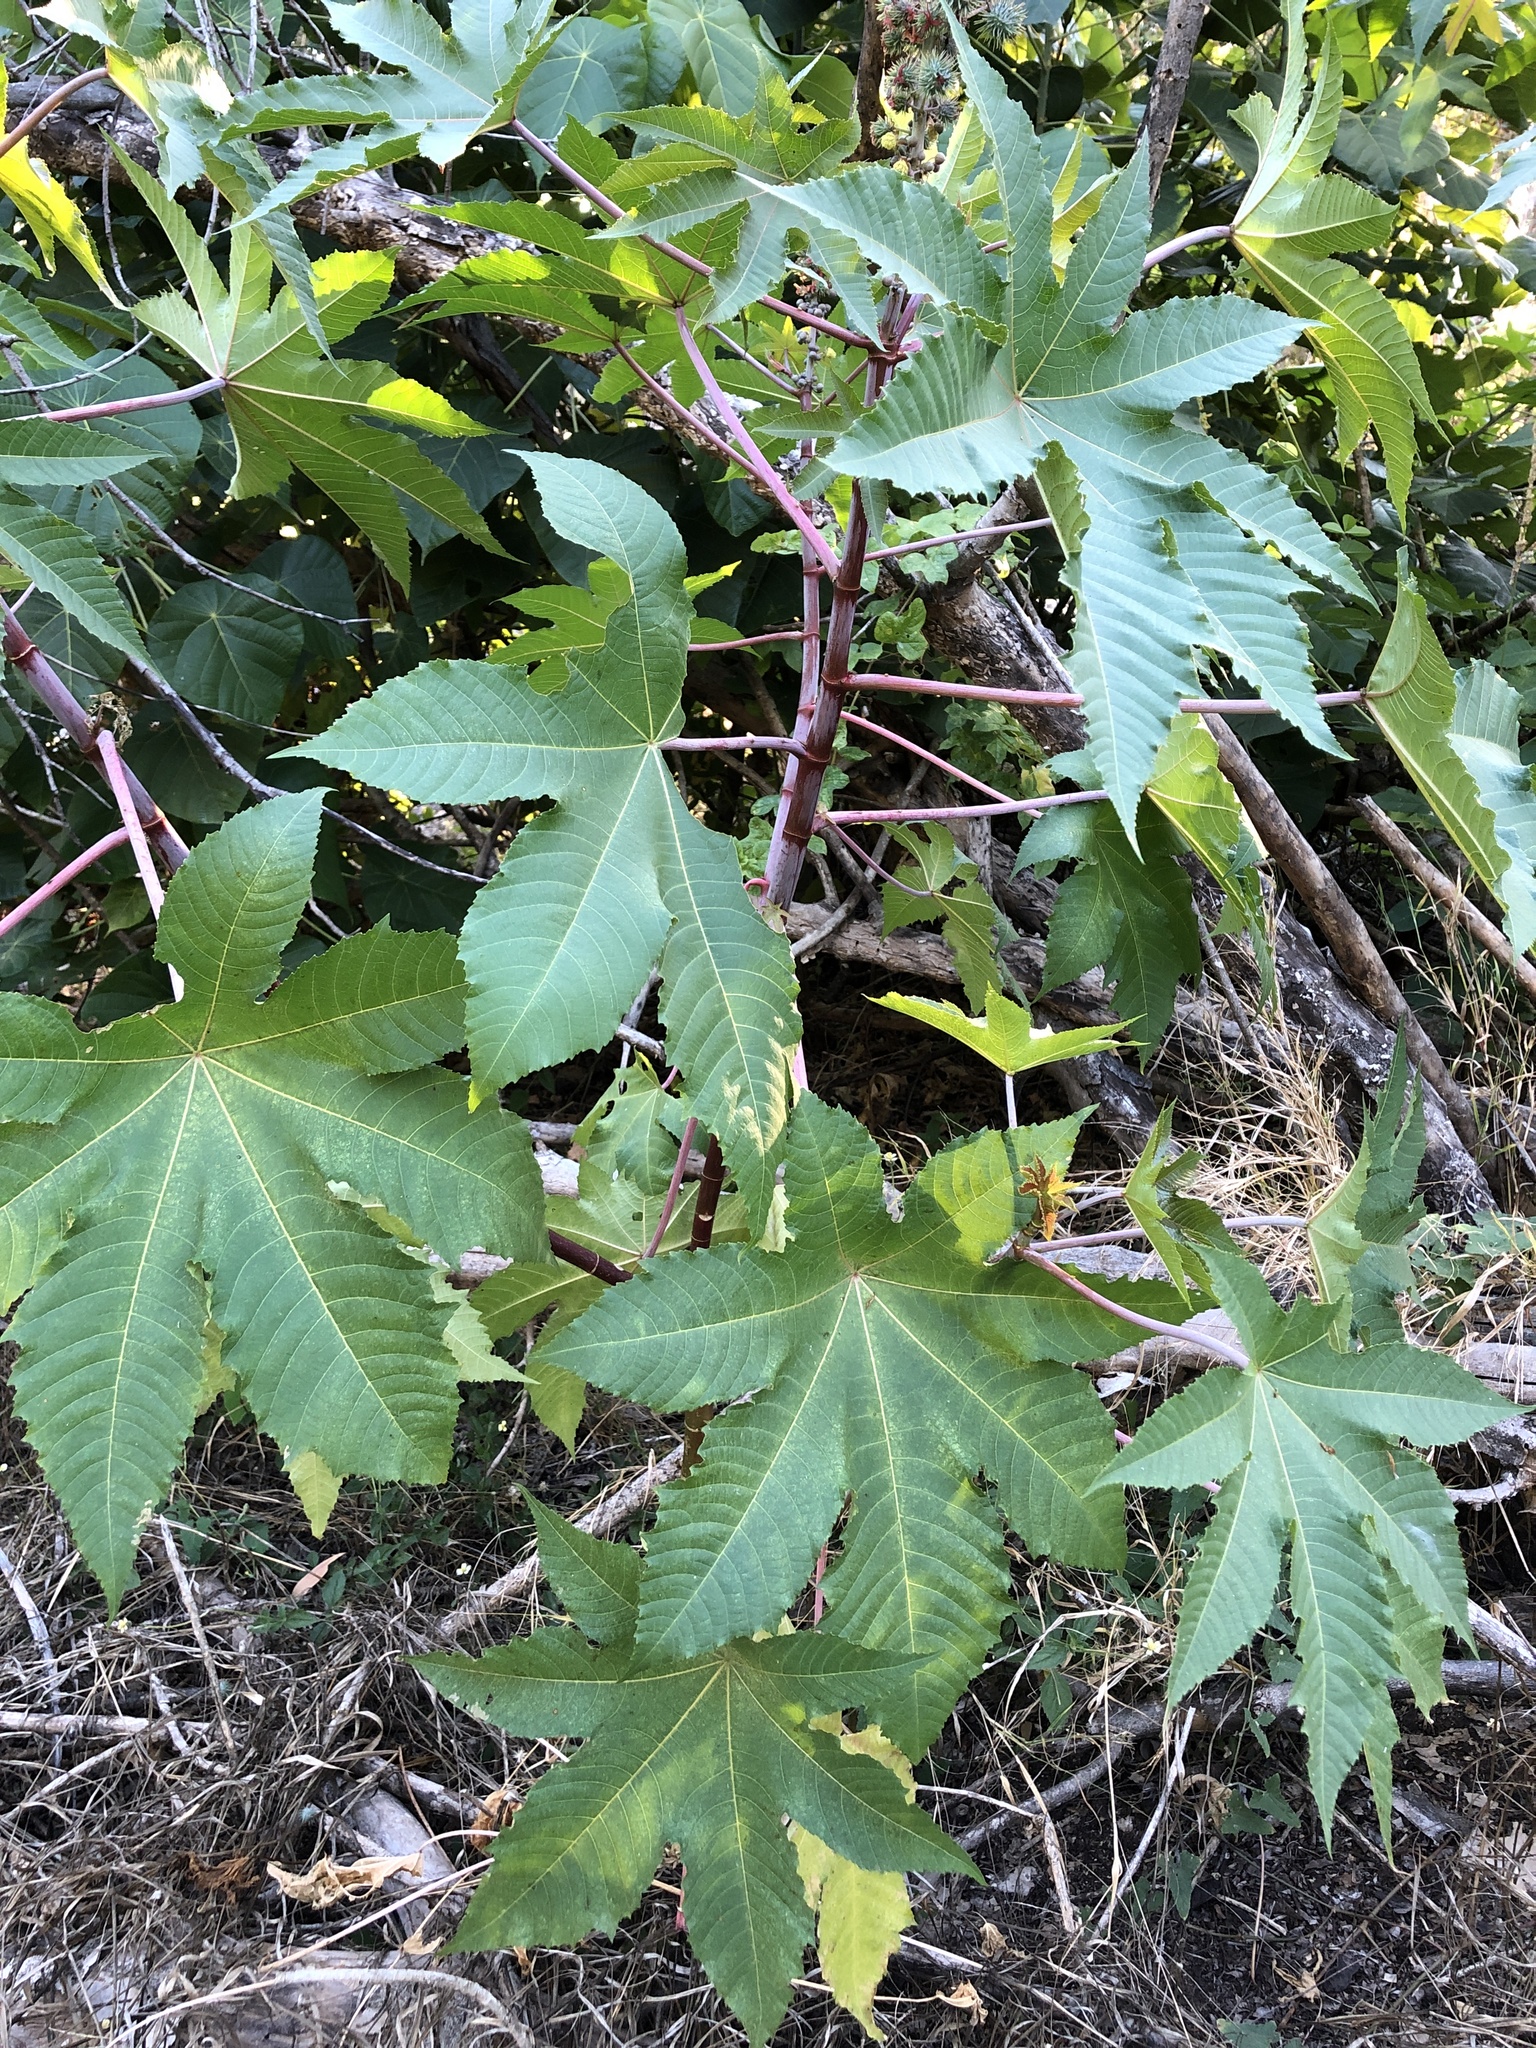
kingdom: Plantae
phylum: Tracheophyta
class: Magnoliopsida
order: Malpighiales
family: Euphorbiaceae
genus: Ricinus
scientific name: Ricinus communis
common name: Castor-oil-plant
